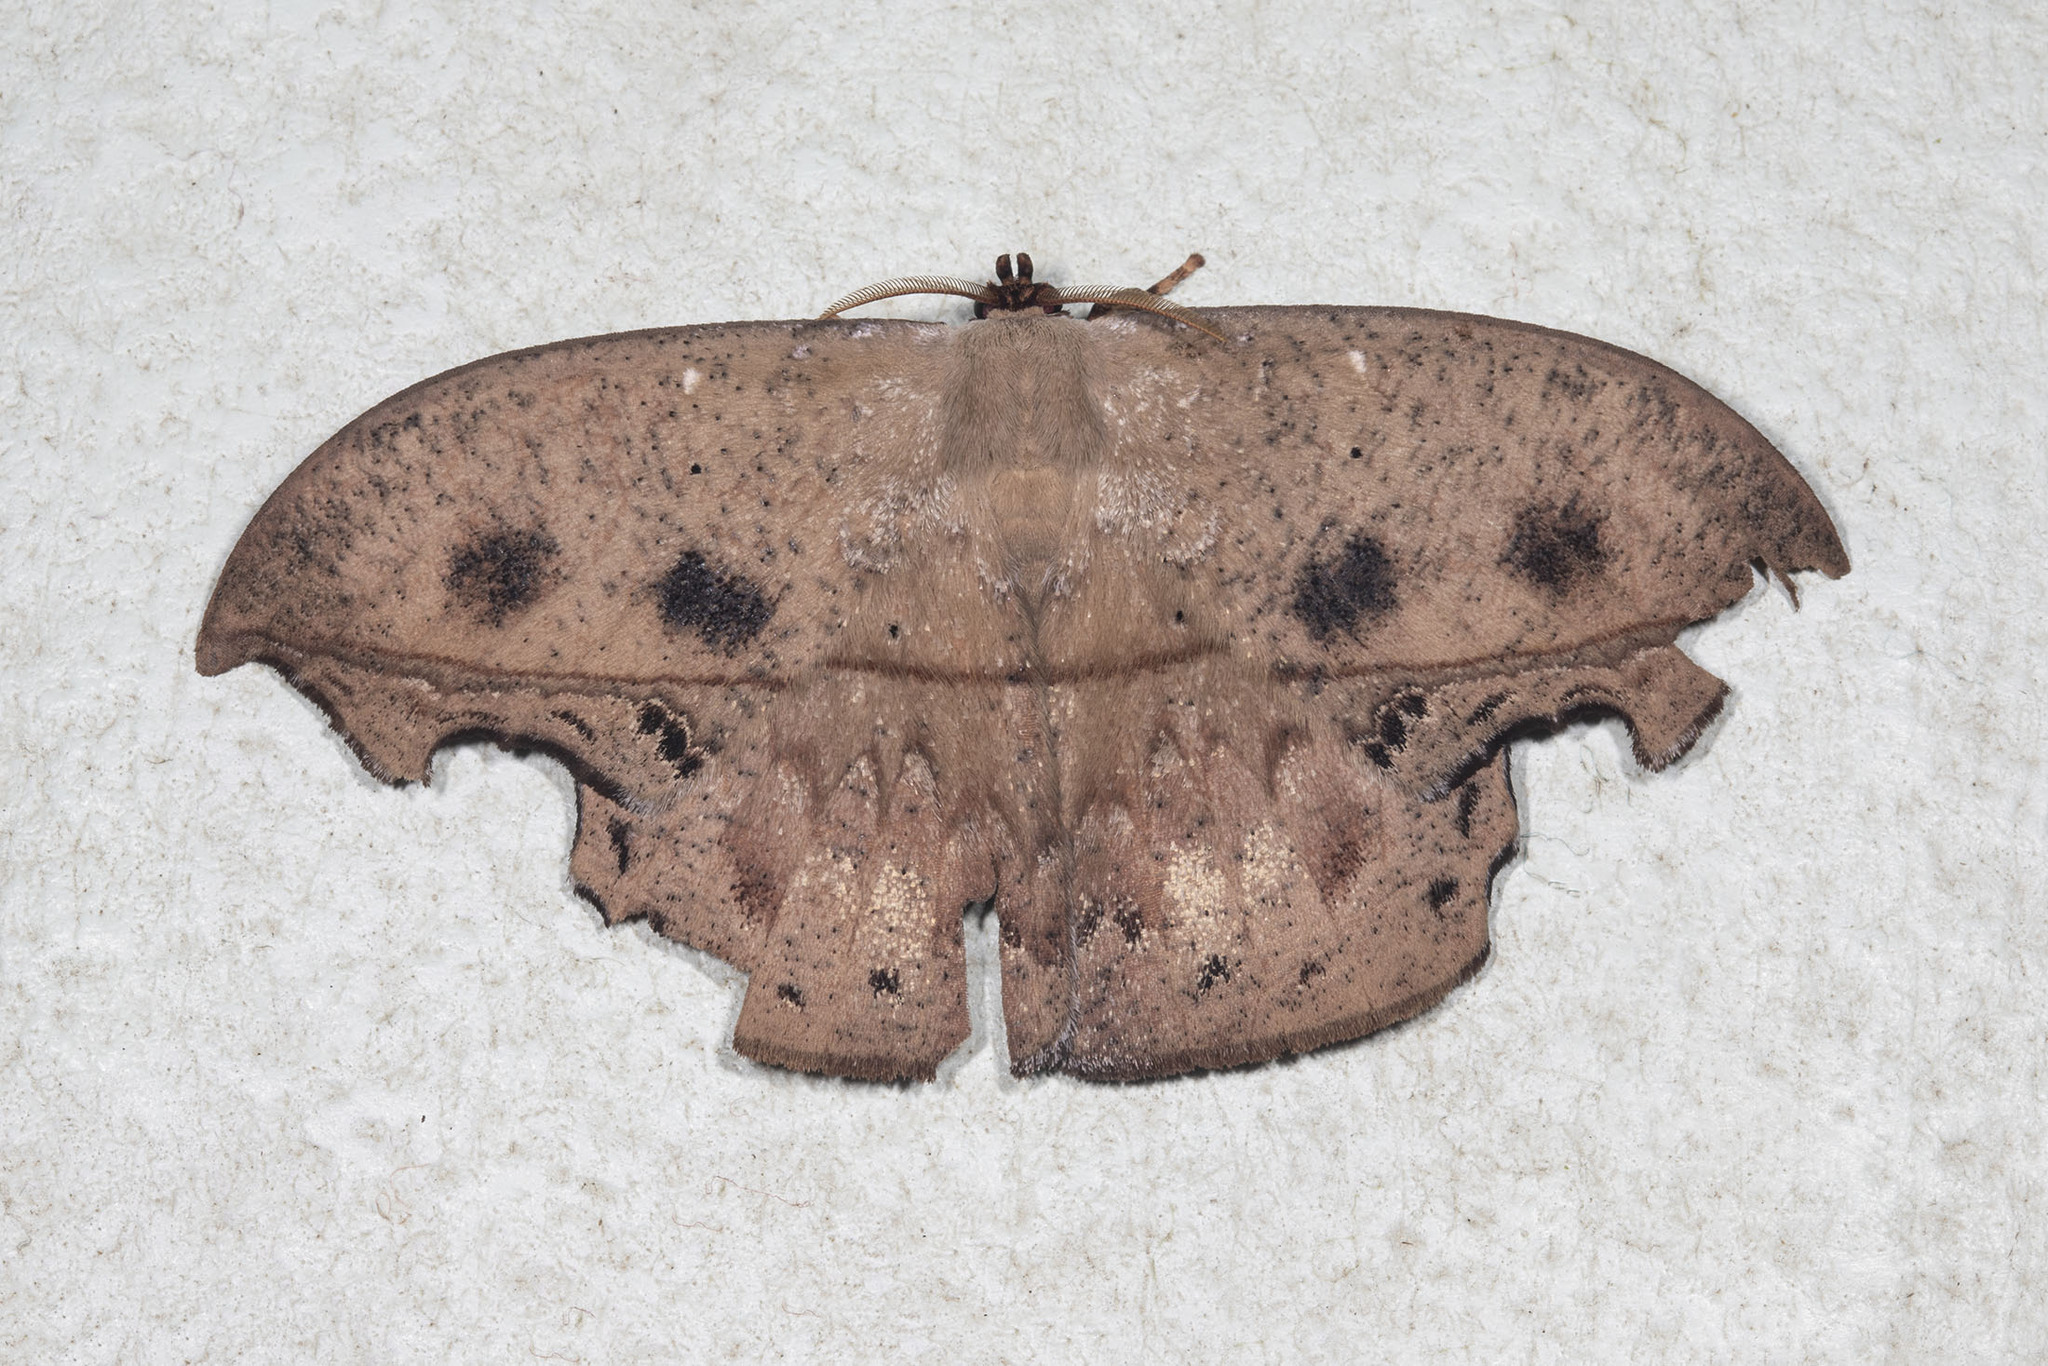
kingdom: Animalia
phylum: Arthropoda
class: Insecta
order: Lepidoptera
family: Saturniidae
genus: Oxytenis
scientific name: Oxytenis mirabilis
